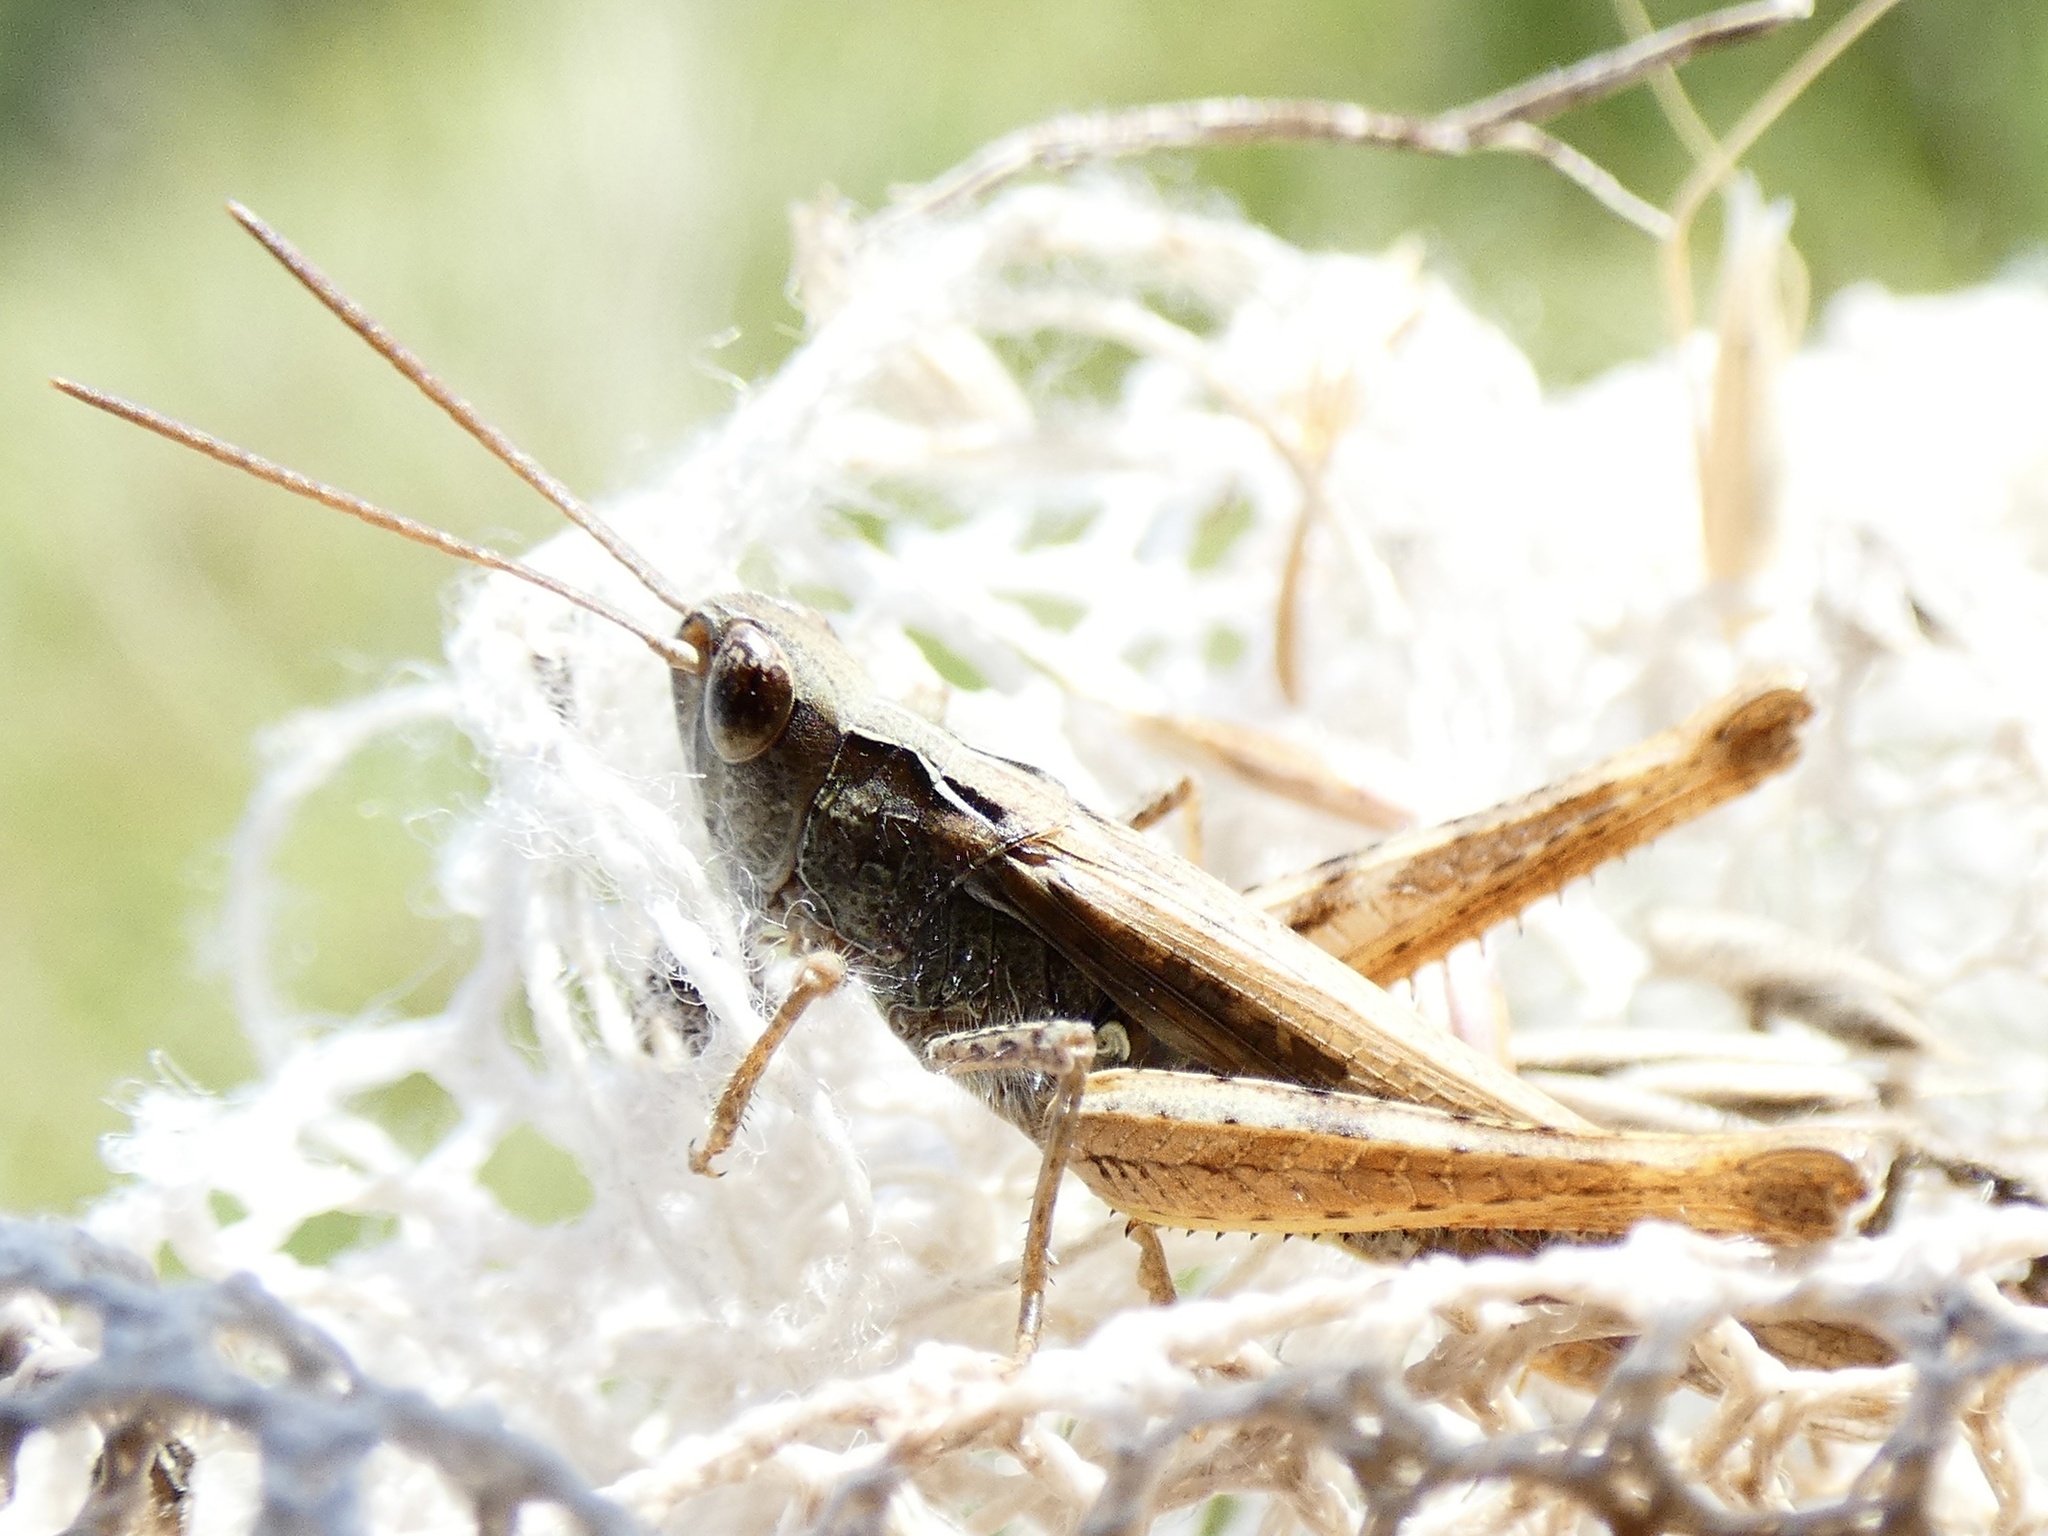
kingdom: Animalia
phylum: Arthropoda
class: Insecta
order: Orthoptera
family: Acrididae
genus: Chorthippus
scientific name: Chorthippus brunneus
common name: Field grasshopper
